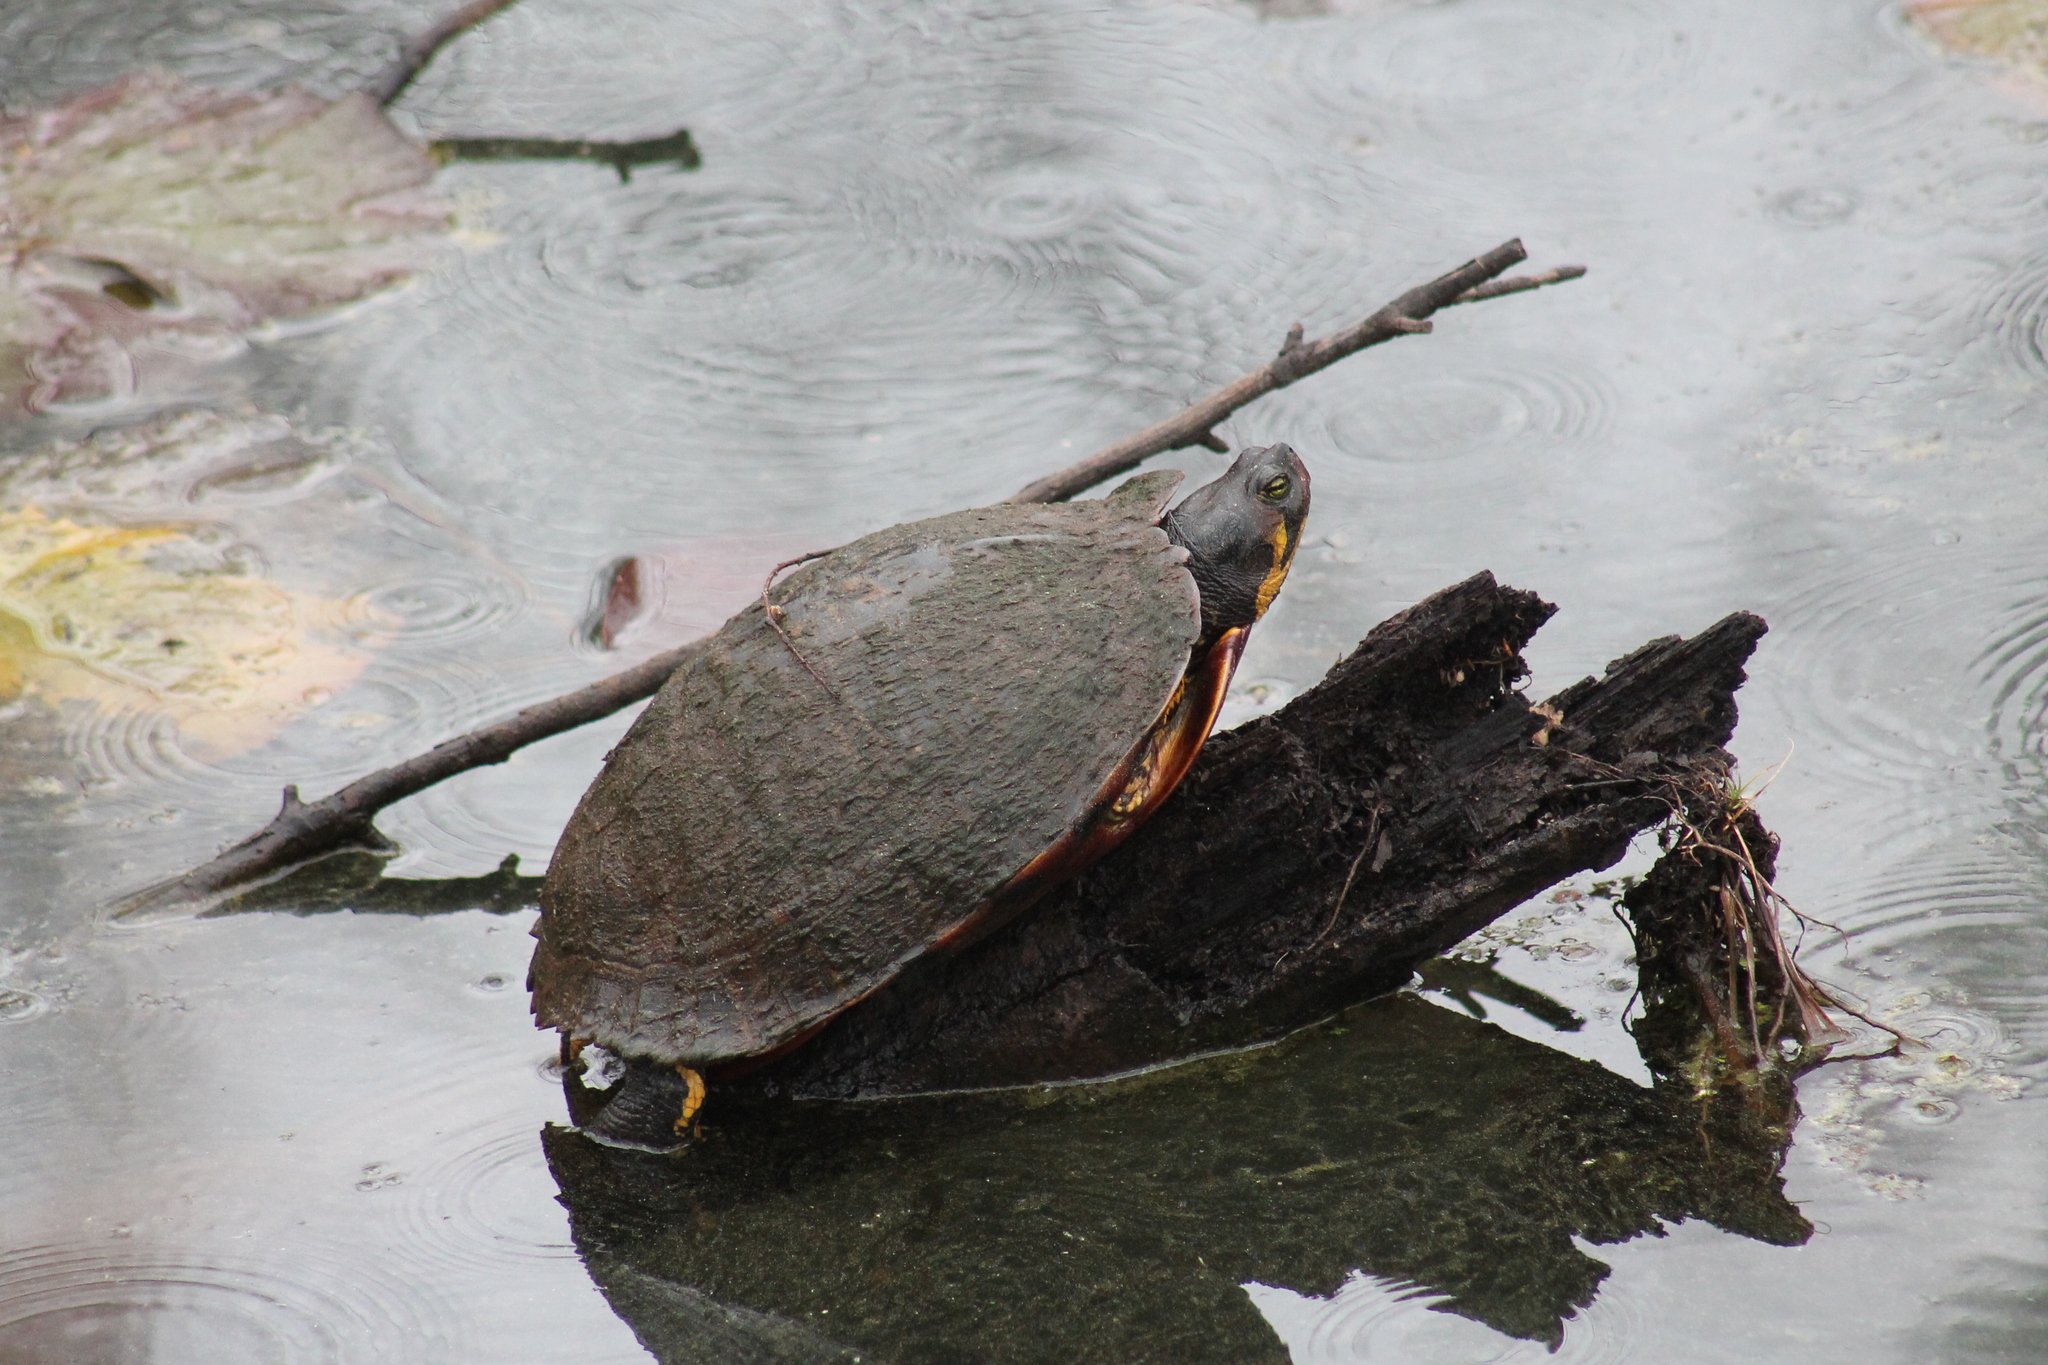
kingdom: Animalia
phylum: Chordata
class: Testudines
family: Emydidae
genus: Trachemys
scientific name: Trachemys scripta
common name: Slider
